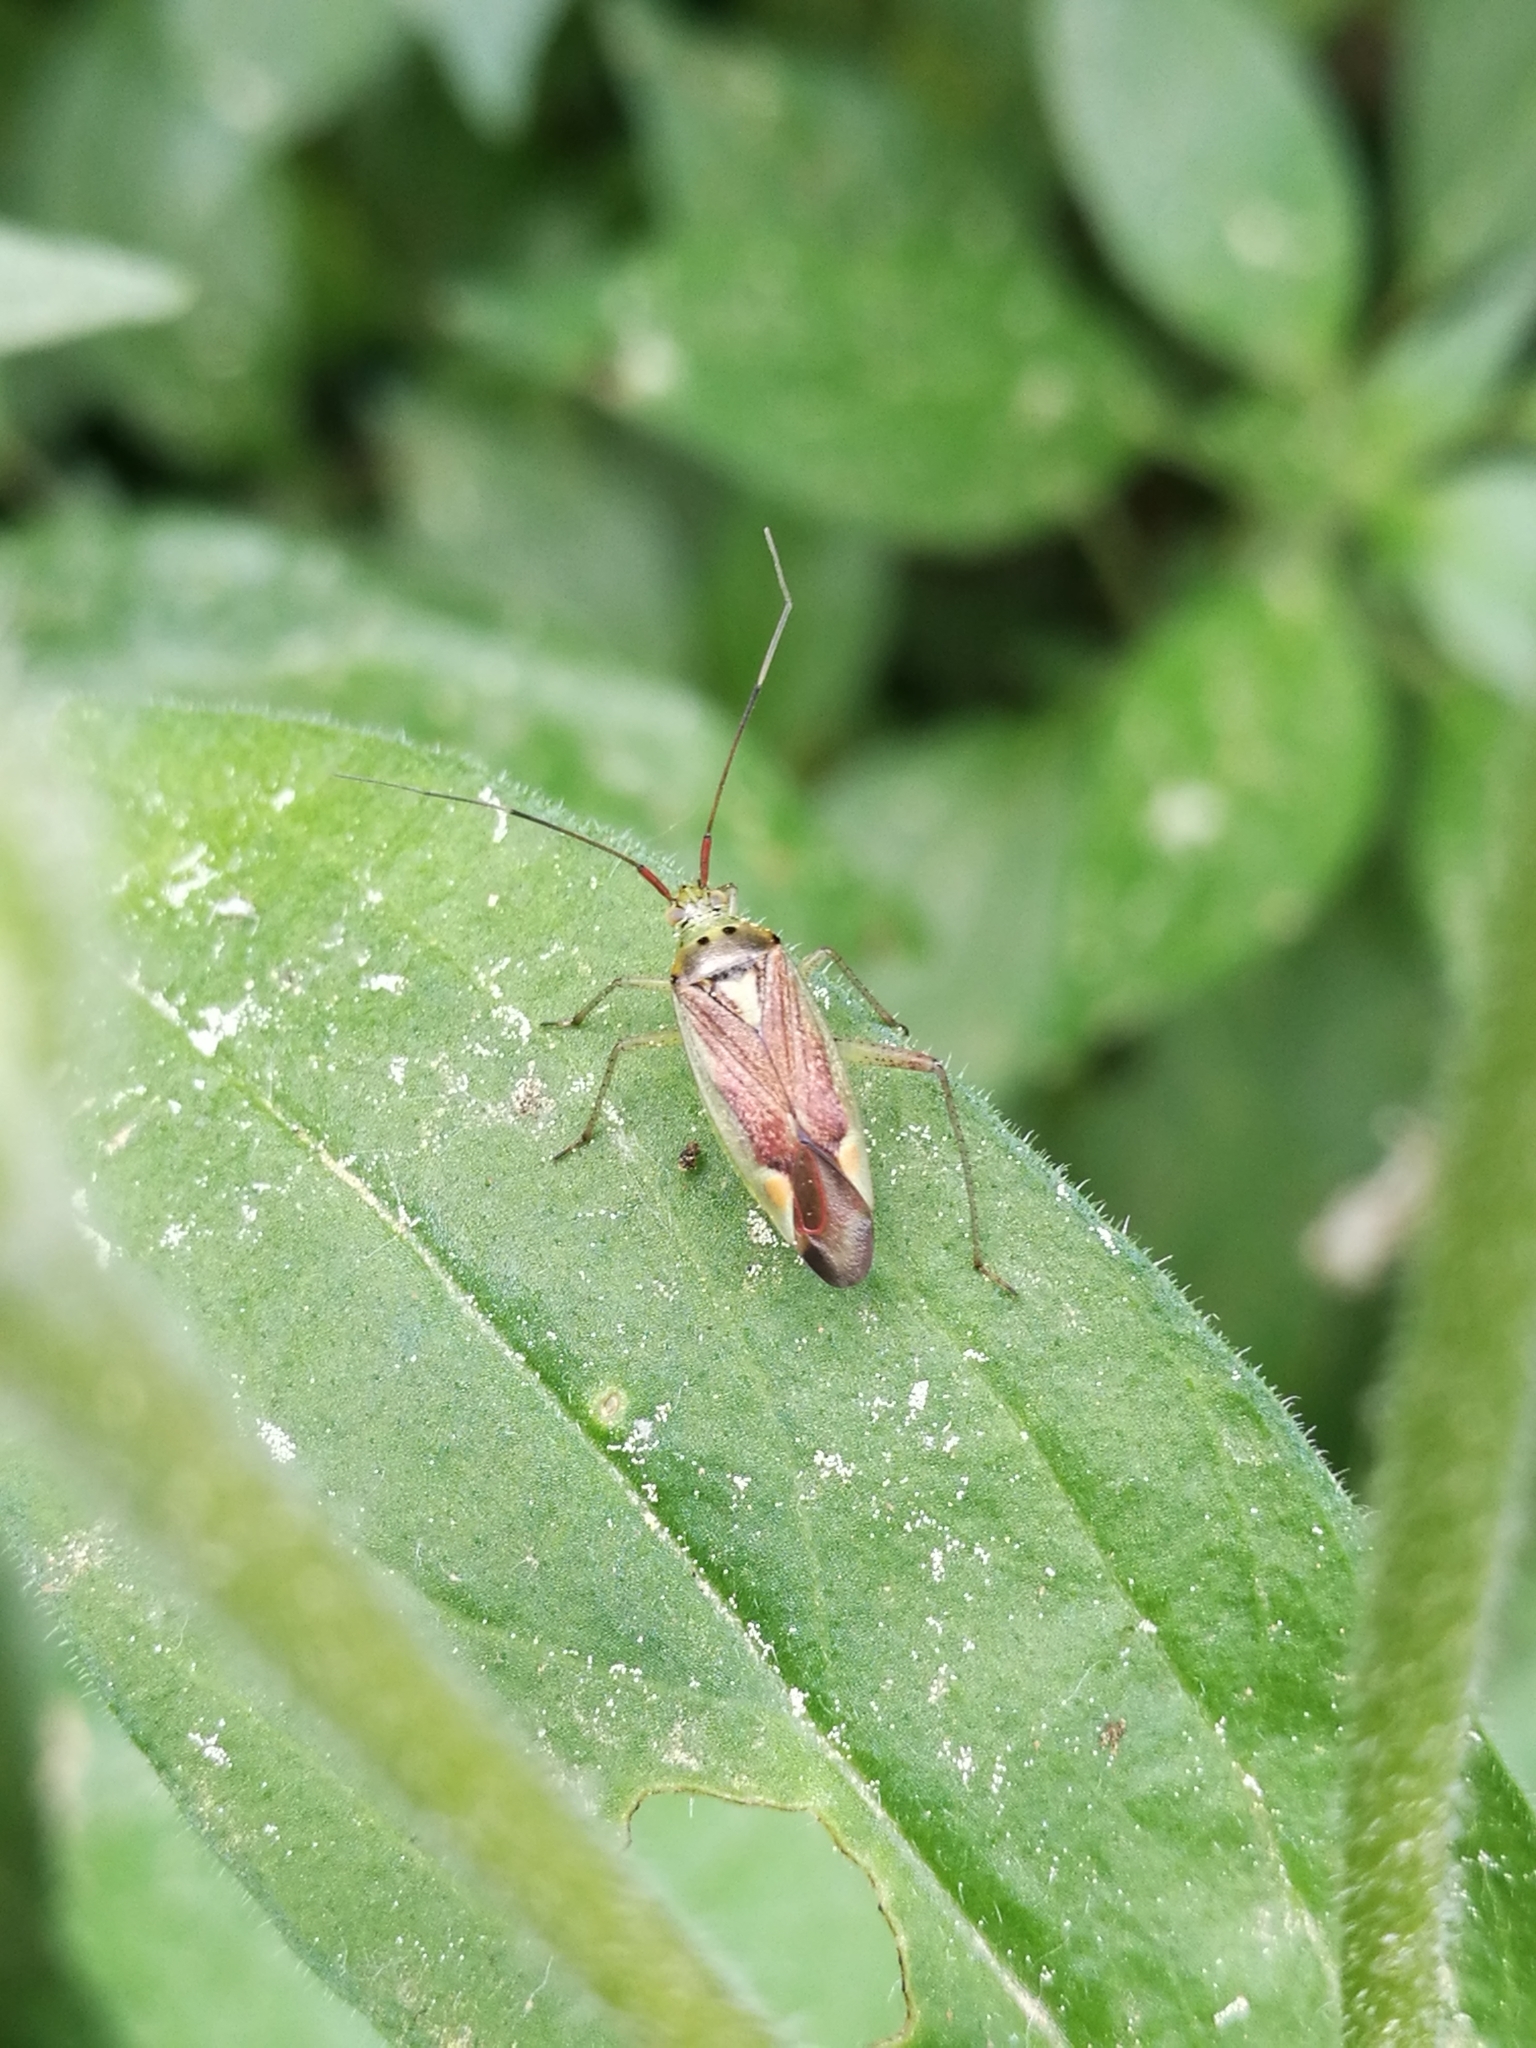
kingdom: Animalia
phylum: Arthropoda
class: Insecta
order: Hemiptera
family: Miridae
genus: Closterotomus
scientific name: Closterotomus trivialis
